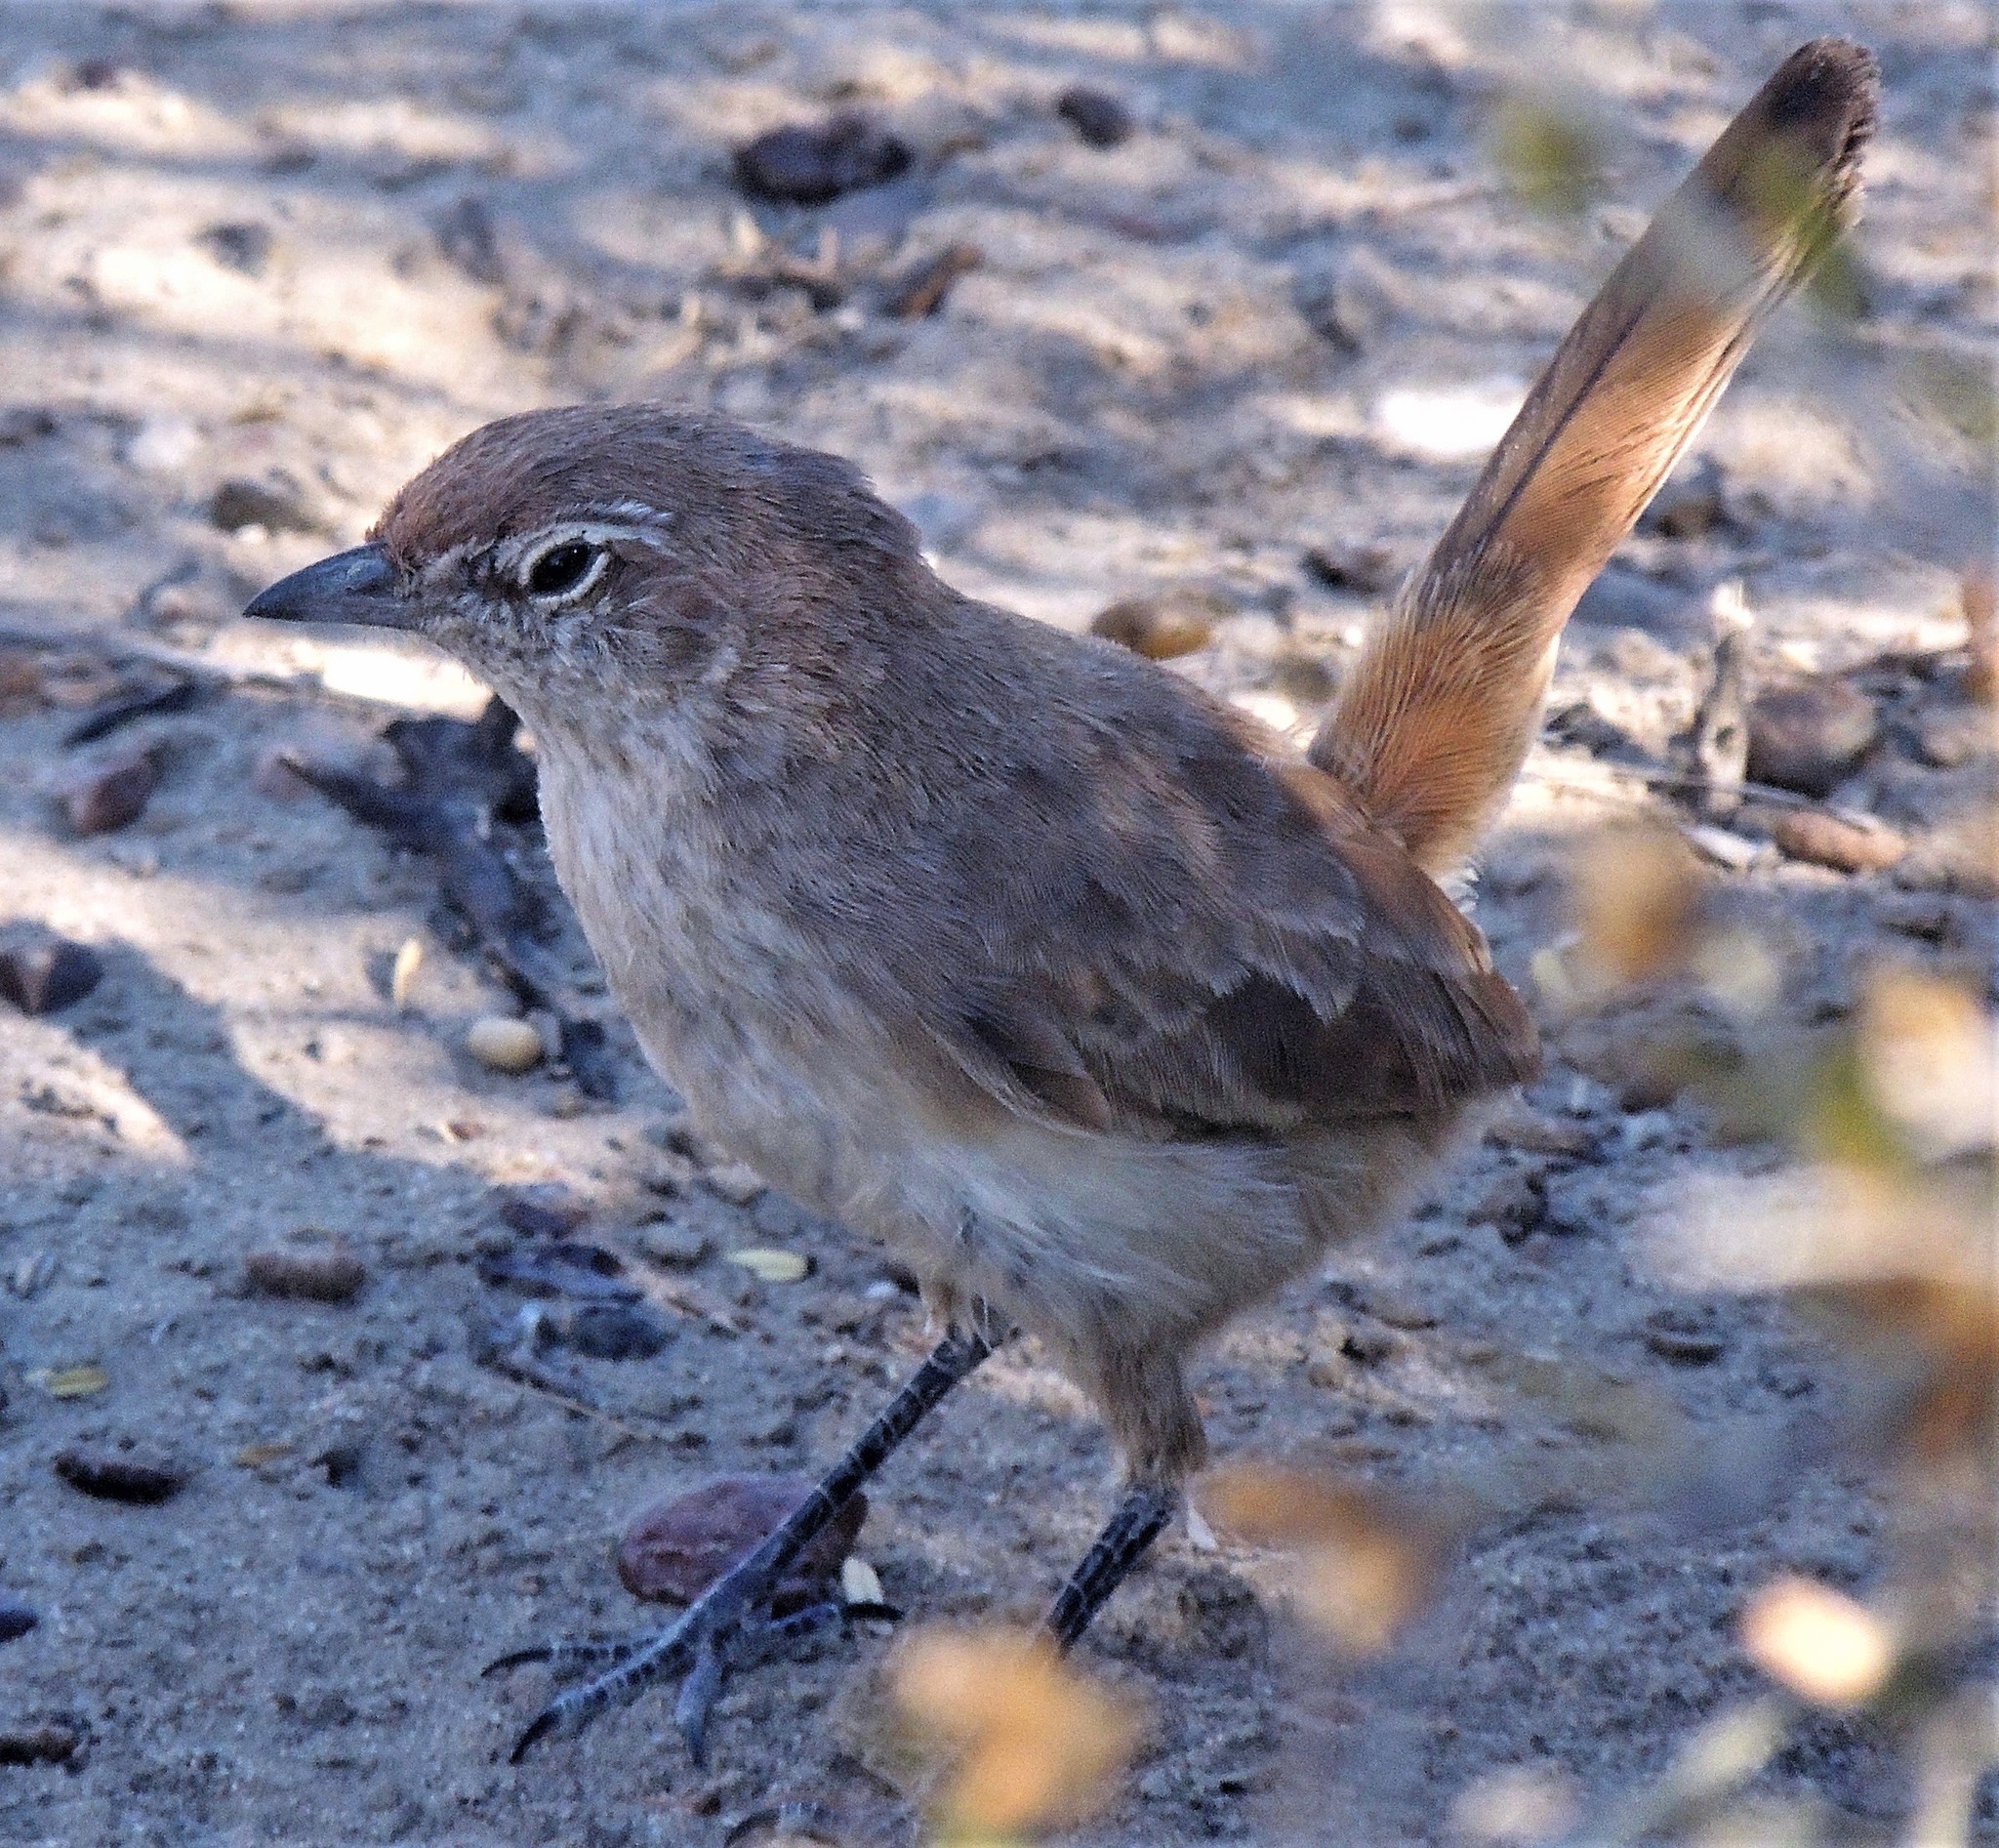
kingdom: Animalia
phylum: Chordata
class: Aves
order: Passeriformes
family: Rhinocryptidae
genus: Teledromas
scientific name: Teledromas fuscus
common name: Sandy gallito
